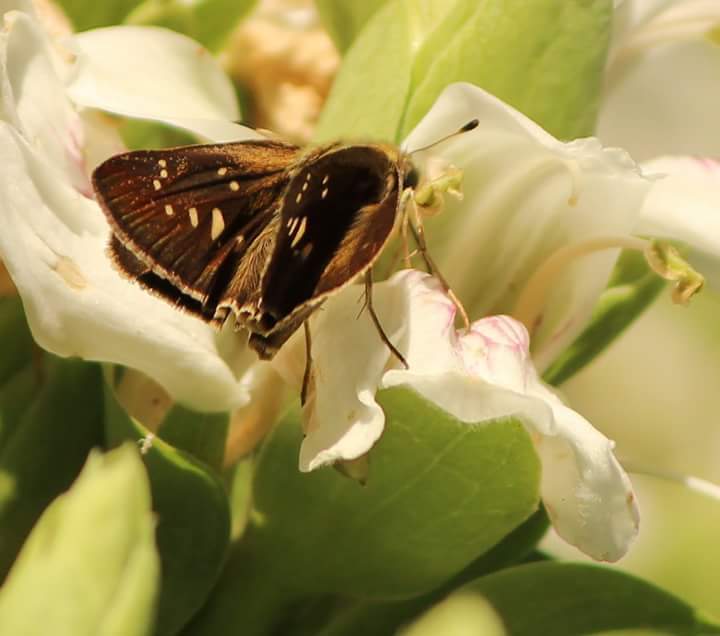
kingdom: Animalia
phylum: Arthropoda
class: Insecta
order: Lepidoptera
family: Hesperiidae
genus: Pelopidas
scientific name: Pelopidas mathias
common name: Black-branded swift
